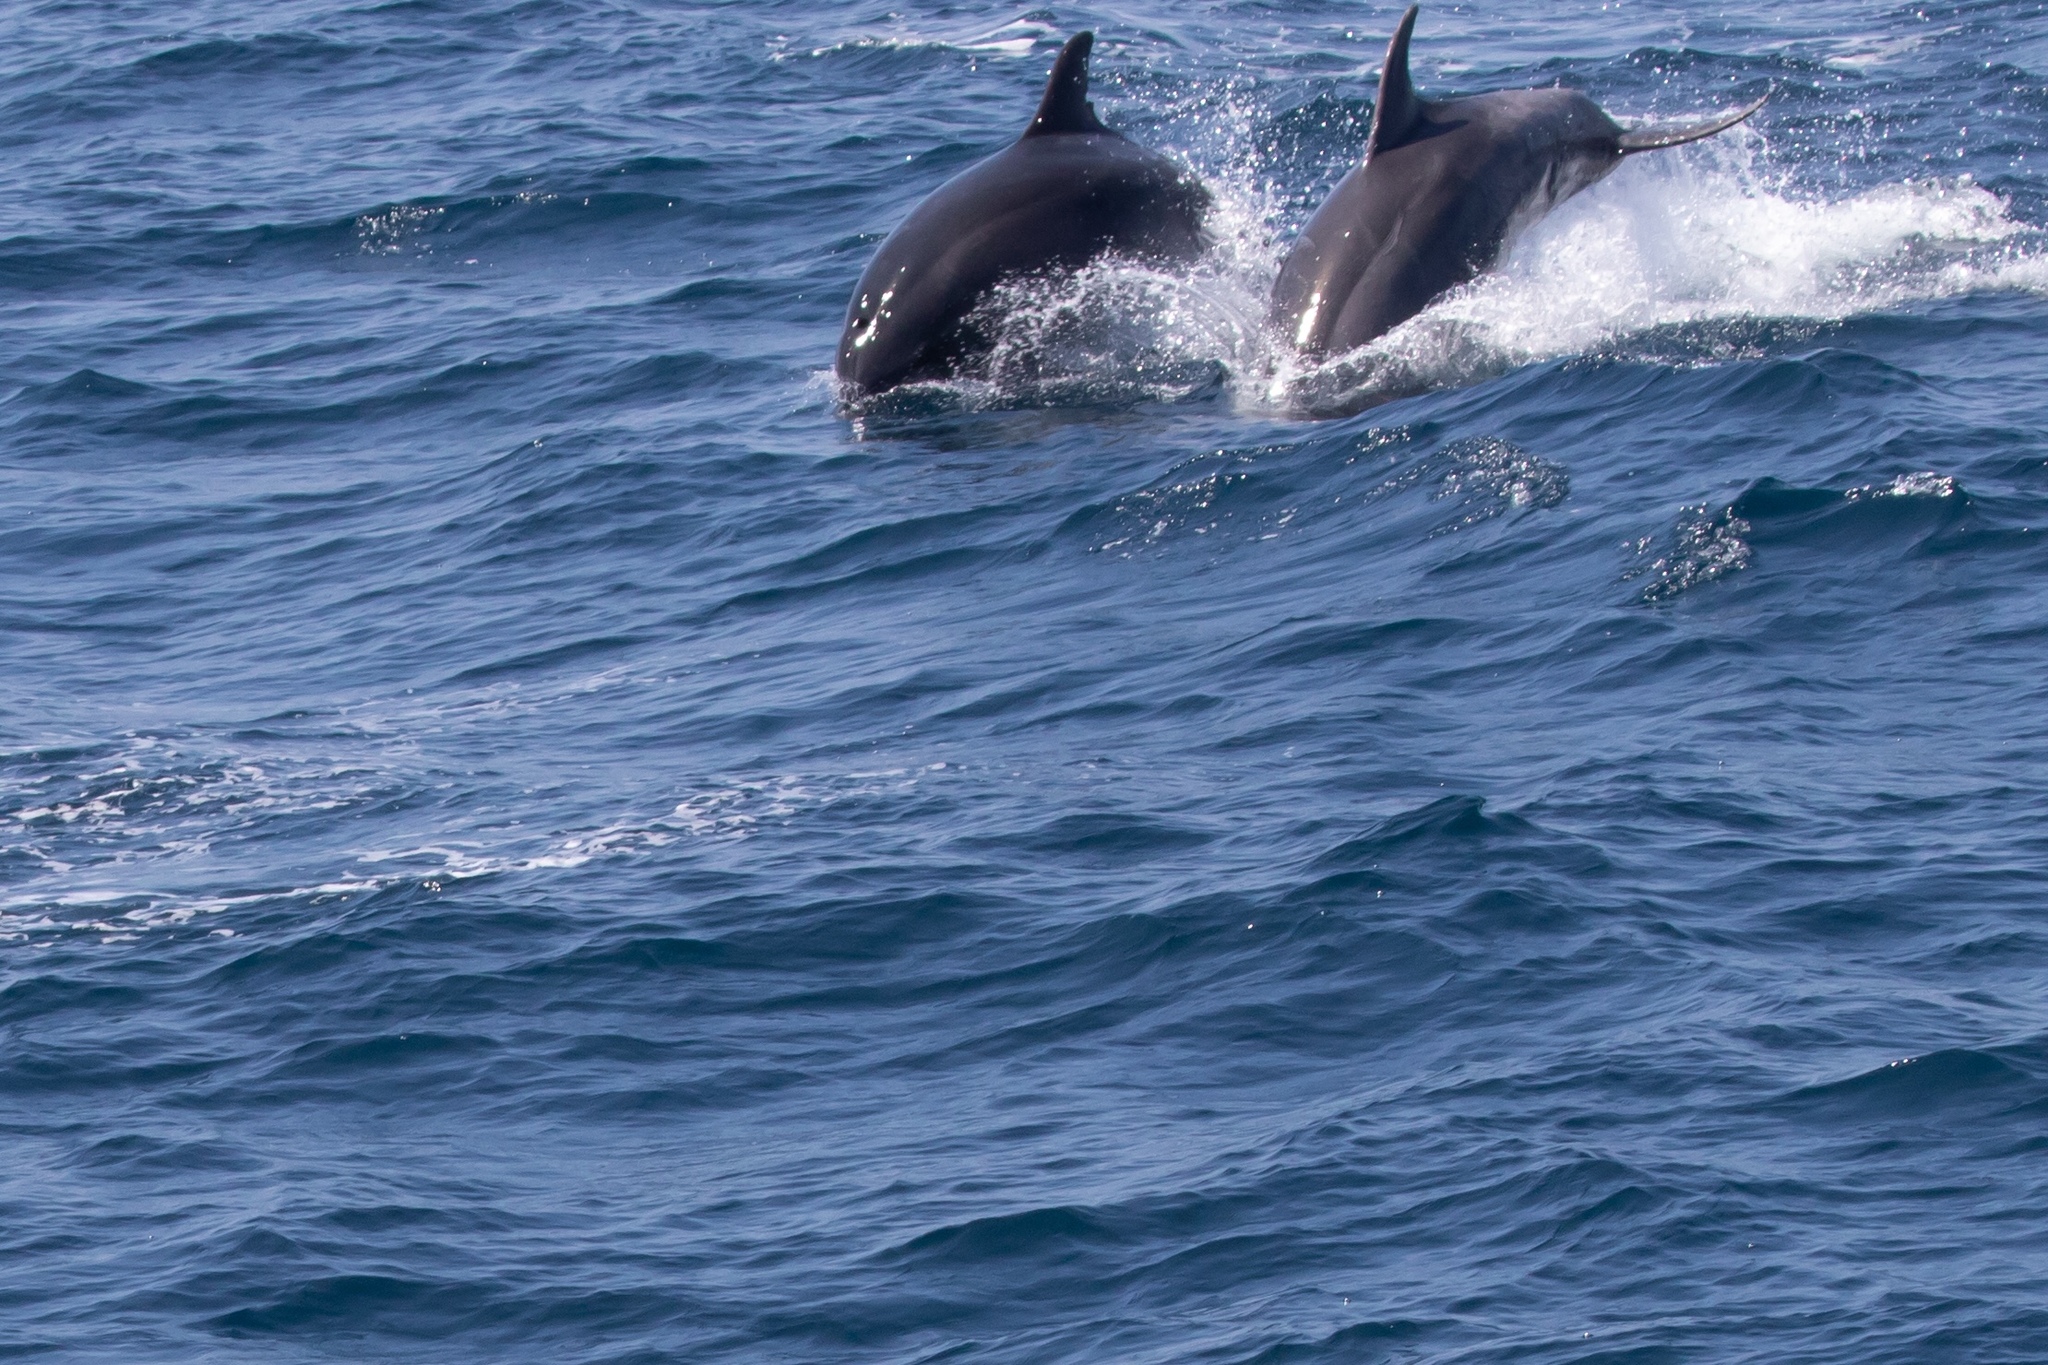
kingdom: Animalia
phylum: Chordata
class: Mammalia
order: Cetacea
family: Delphinidae
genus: Tursiops
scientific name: Tursiops truncatus
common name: Bottlenose dolphin
